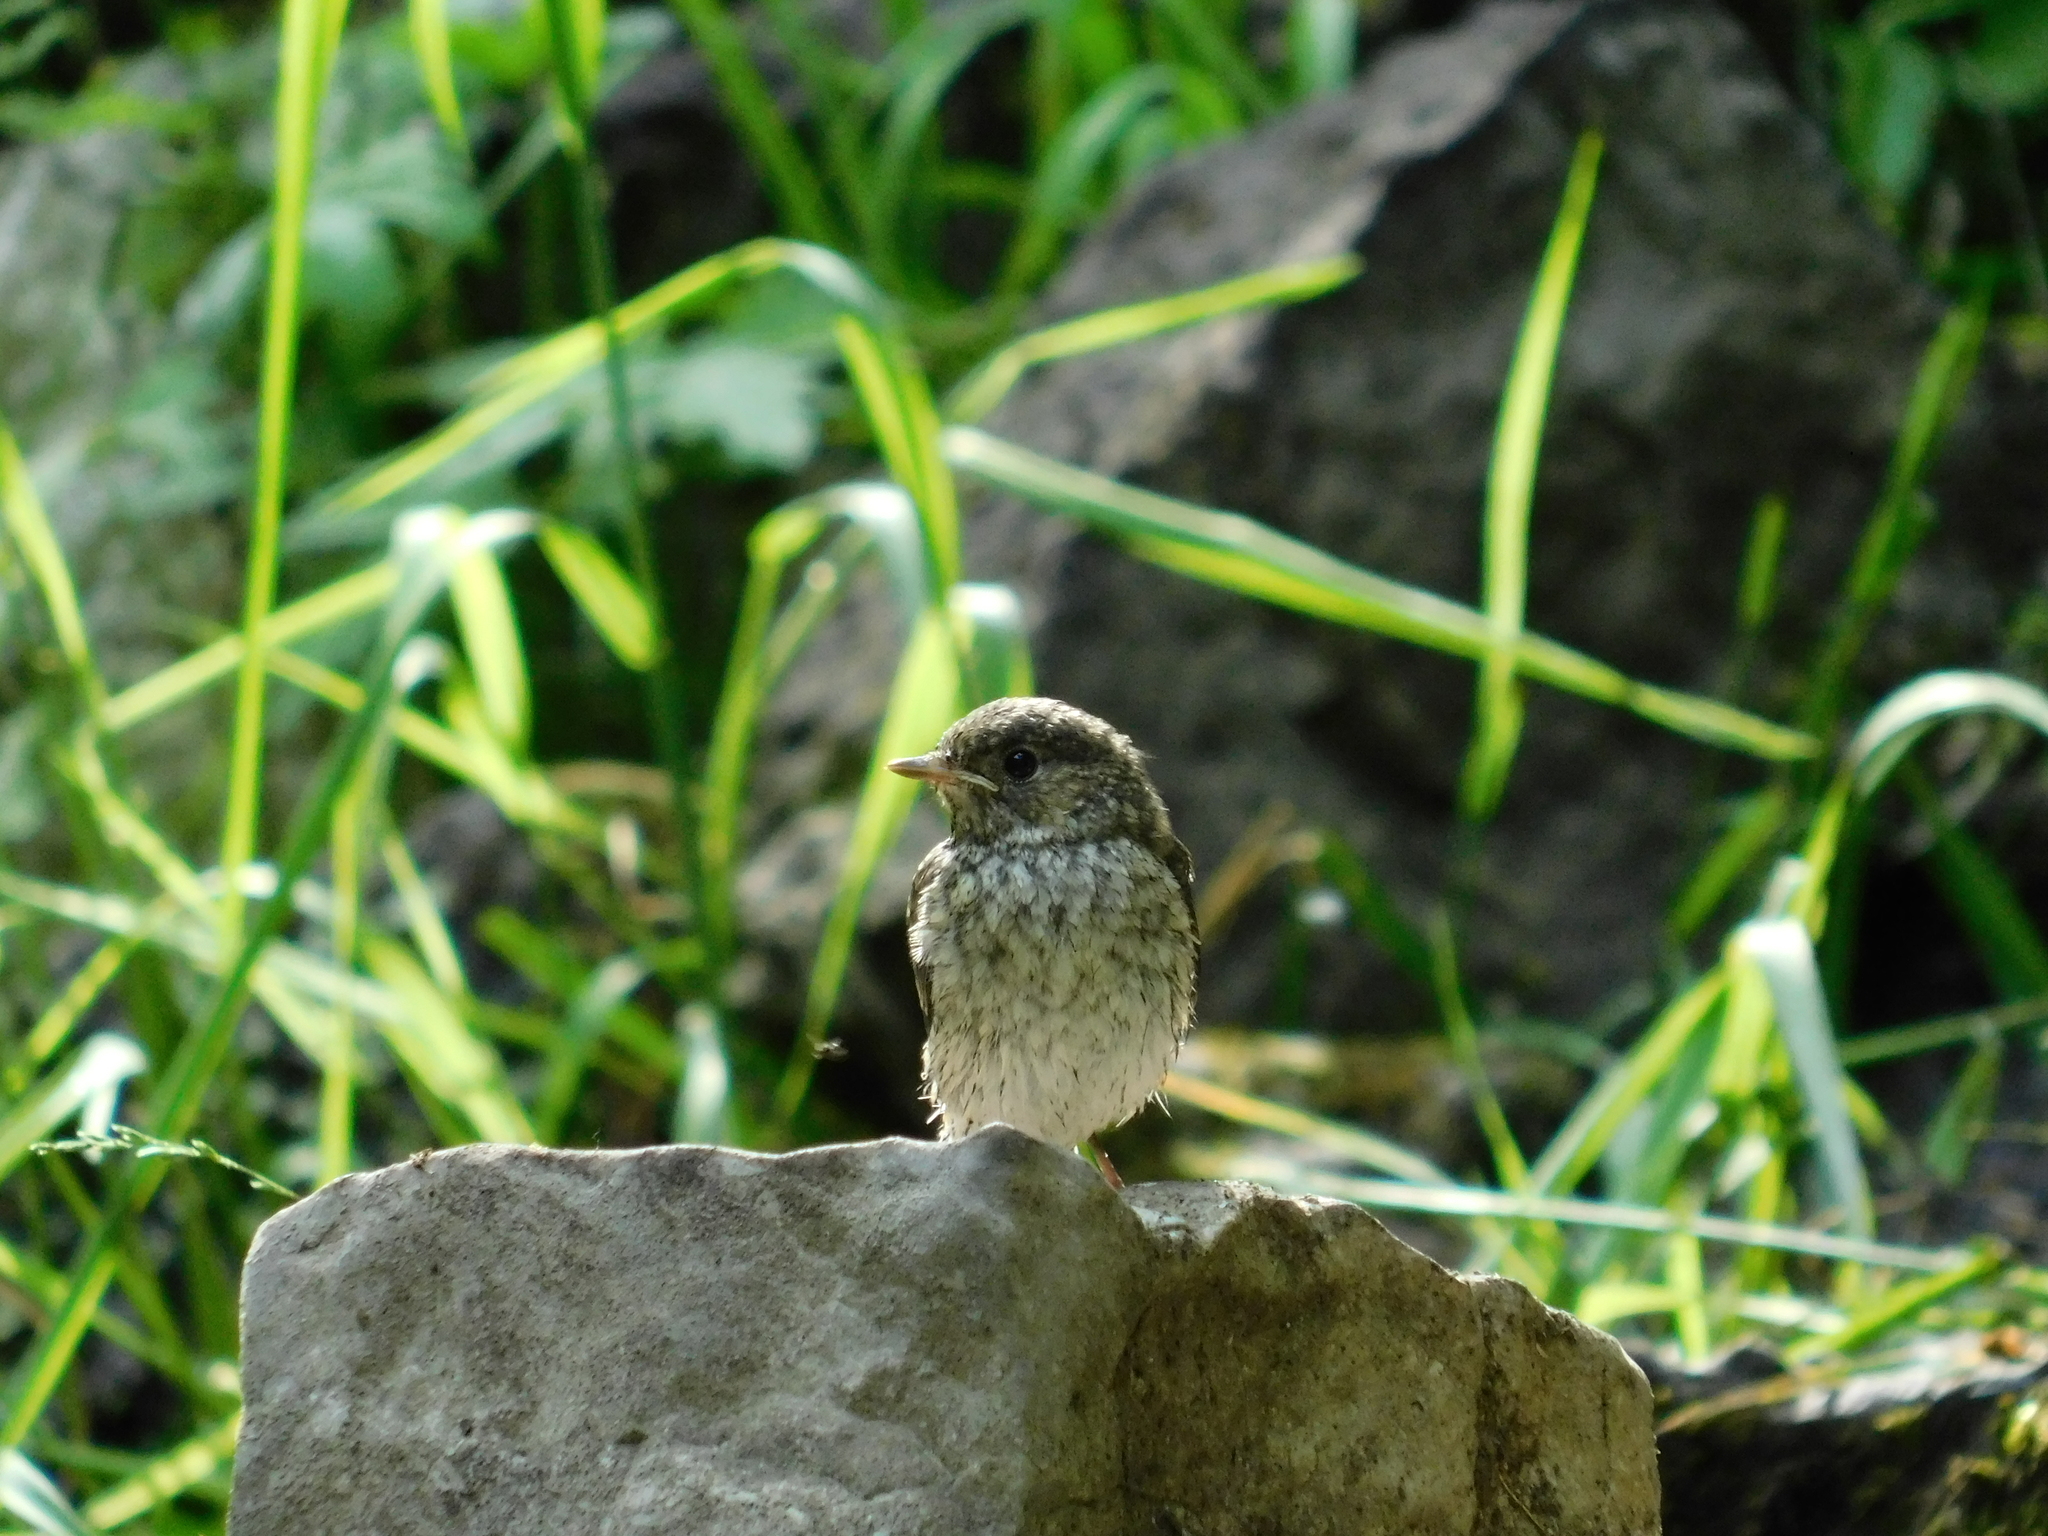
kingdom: Animalia
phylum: Chordata
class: Aves
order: Passeriformes
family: Muscicapidae
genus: Ficedula
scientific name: Ficedula hypoleuca
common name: European pied flycatcher
